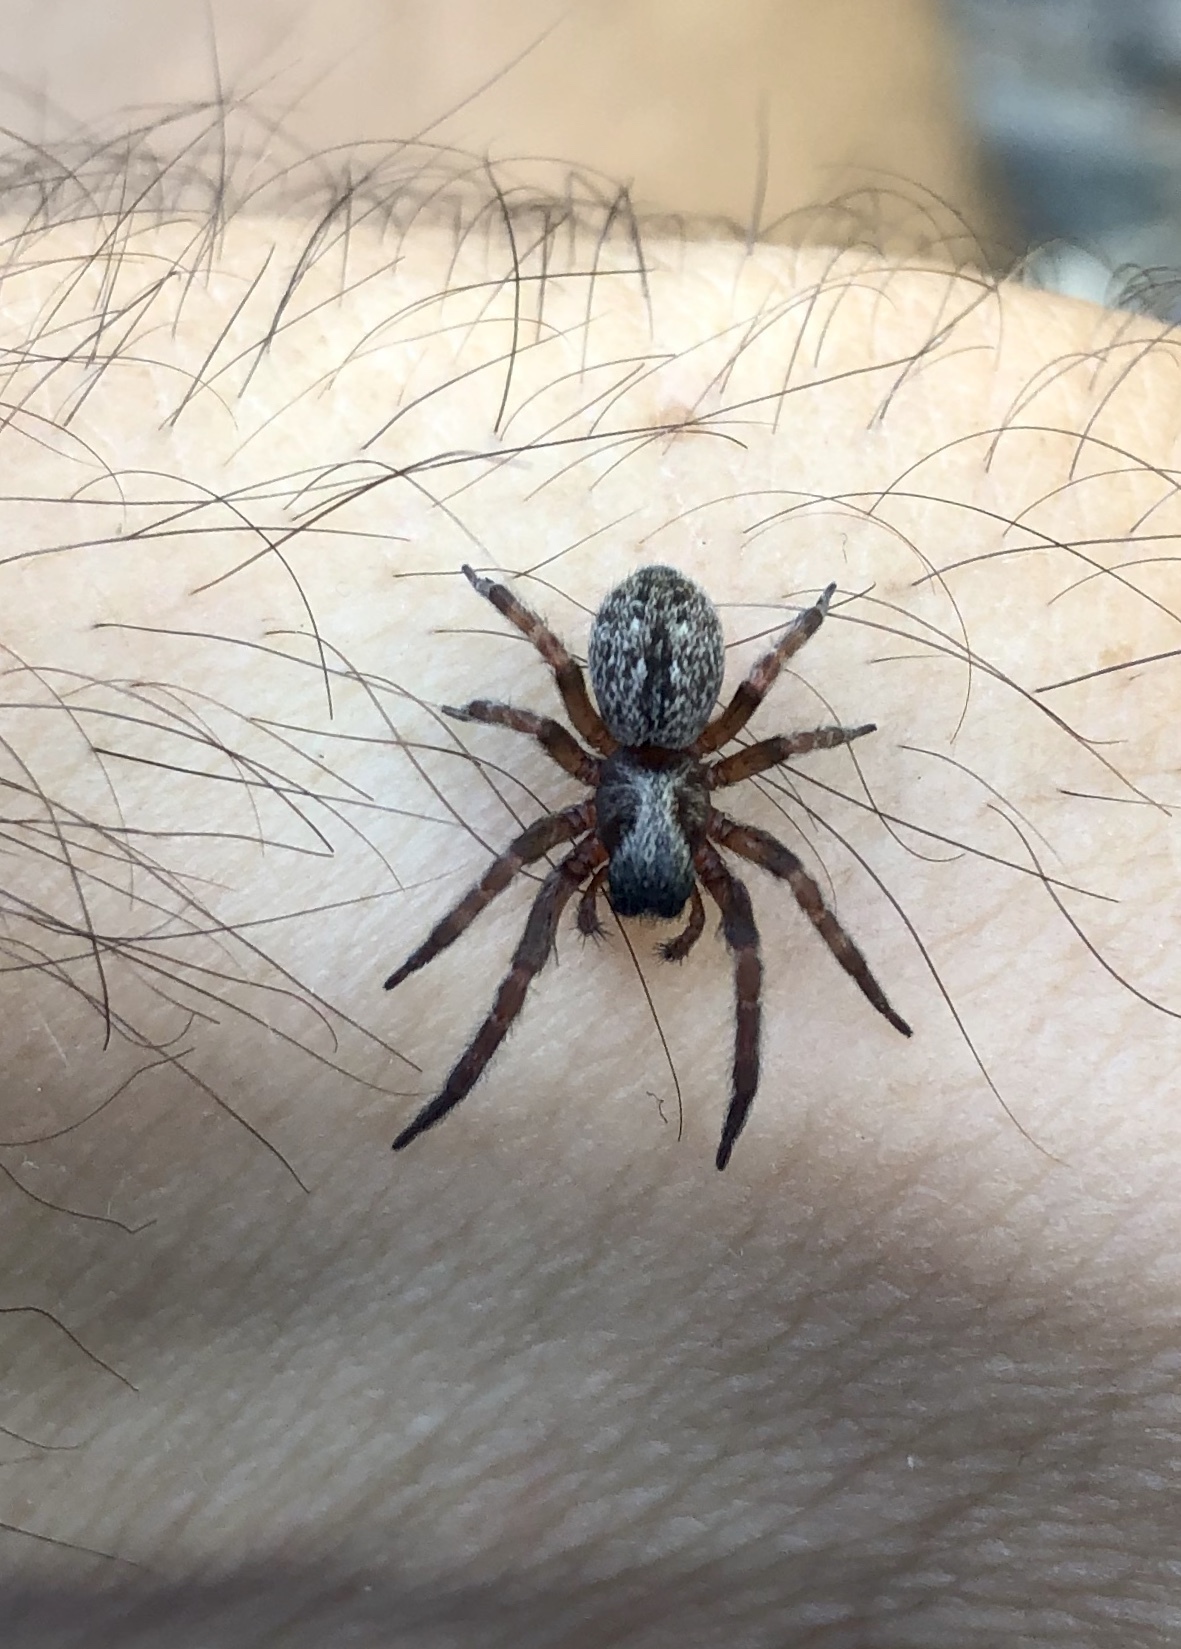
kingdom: Animalia
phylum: Arthropoda
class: Arachnida
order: Araneae
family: Desidae
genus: Badumna
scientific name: Badumna longinqua
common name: Gray house spider
